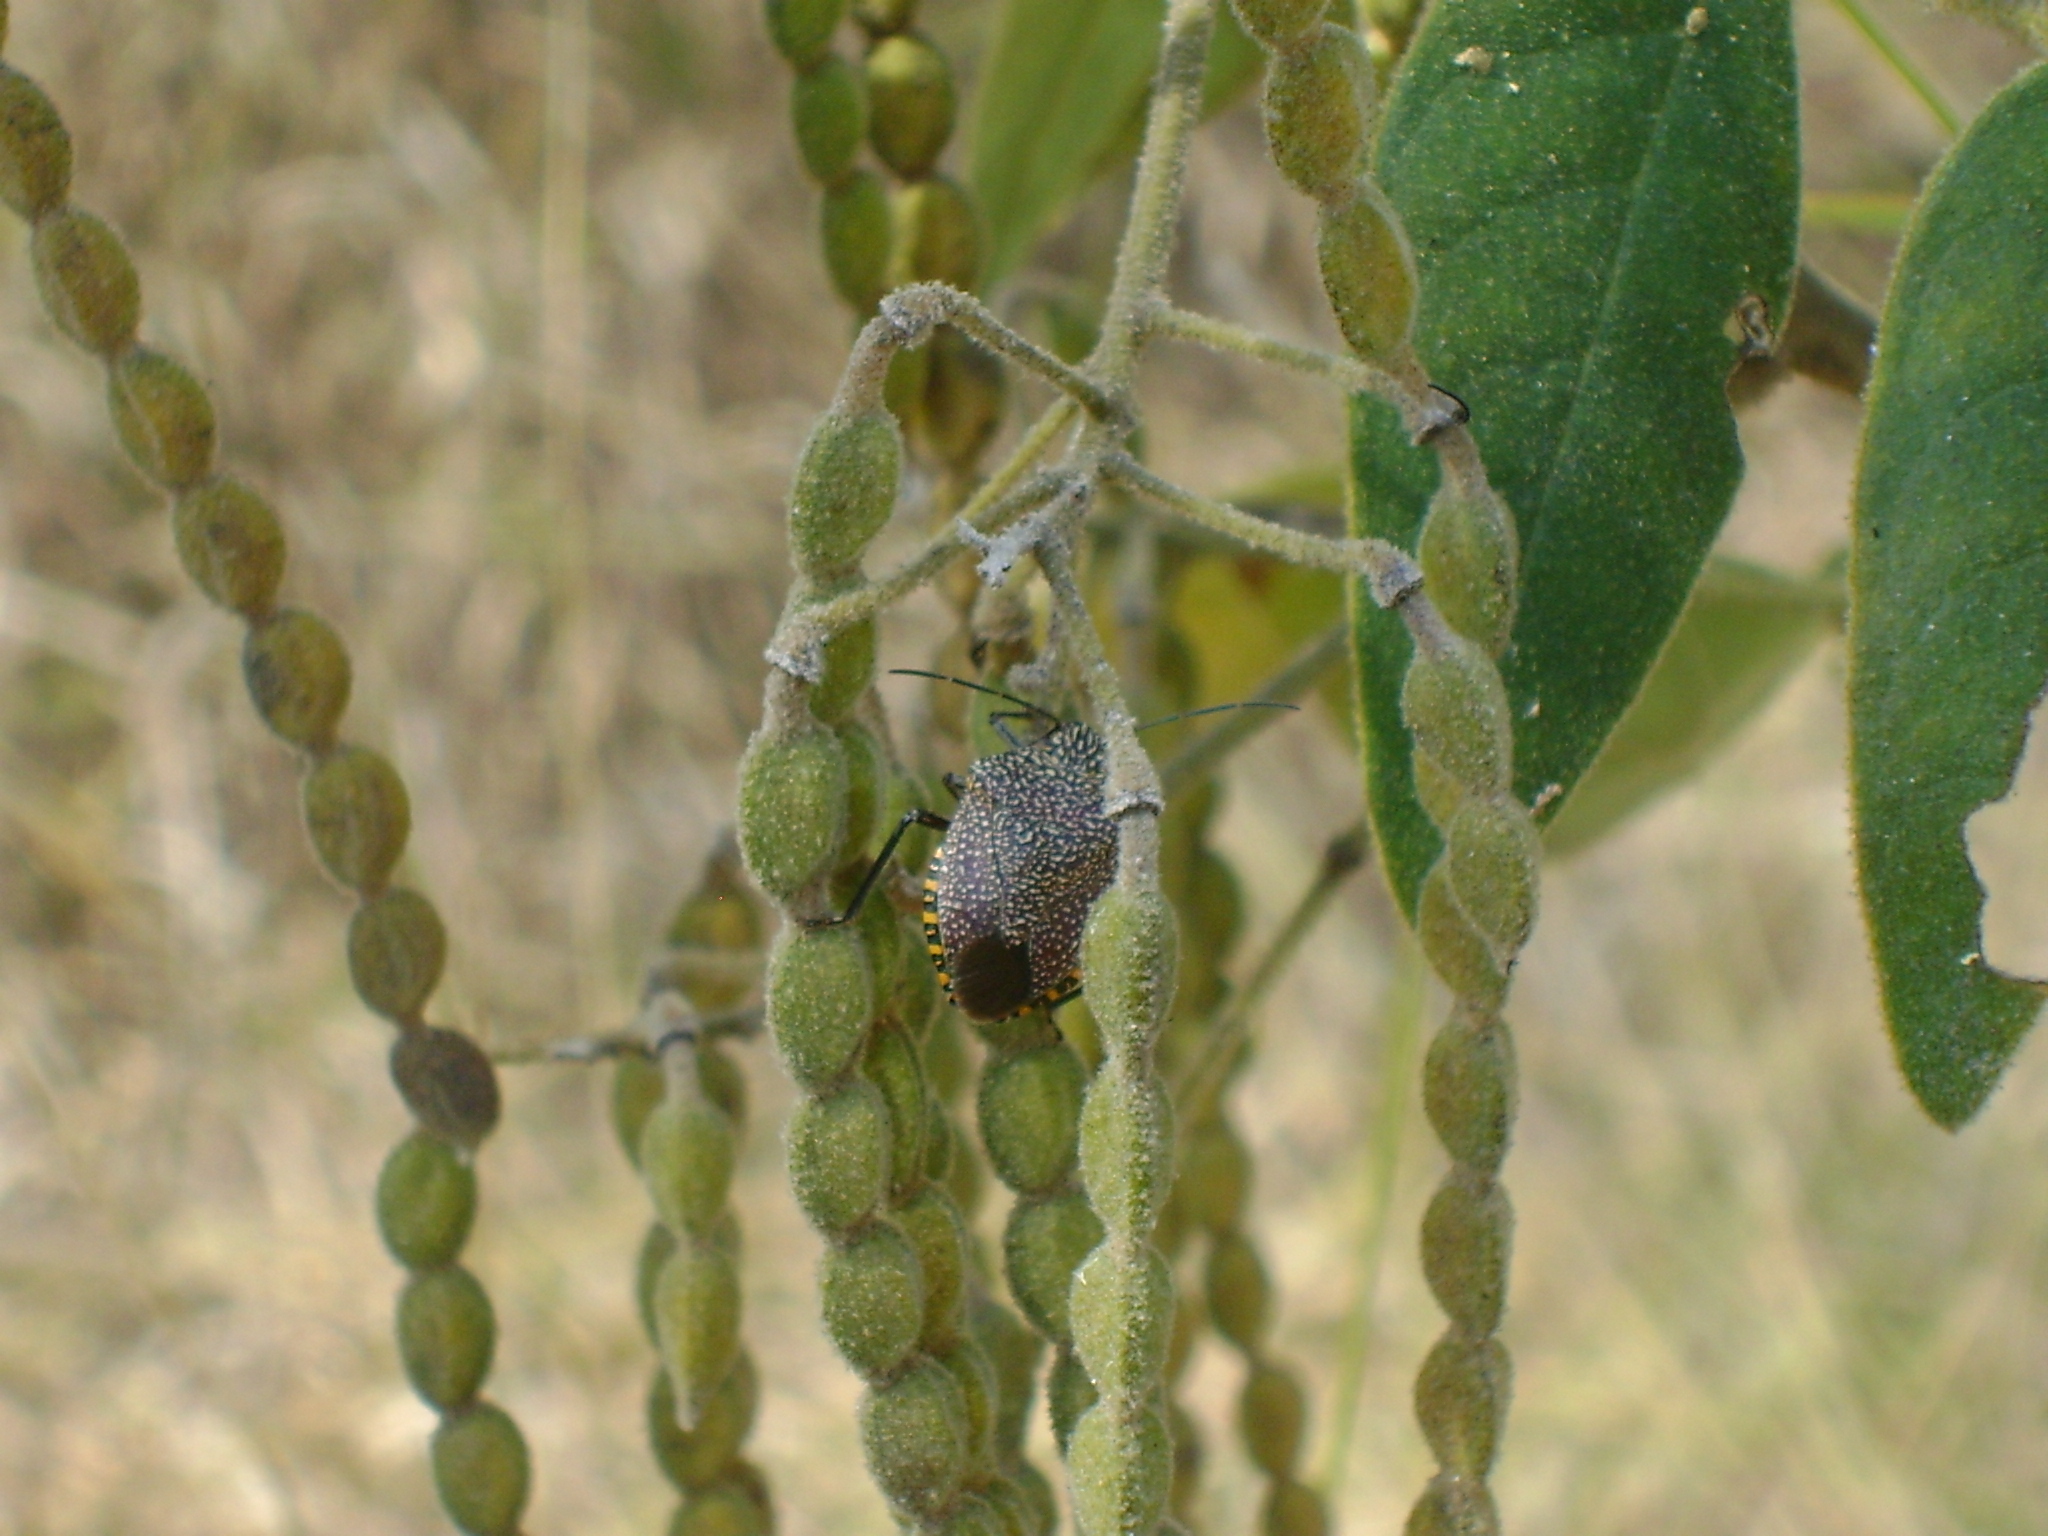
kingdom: Animalia
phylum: Arthropoda
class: Insecta
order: Hemiptera
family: Pentatomidae
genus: Pellaea
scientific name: Pellaea stictica
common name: Stink bug
